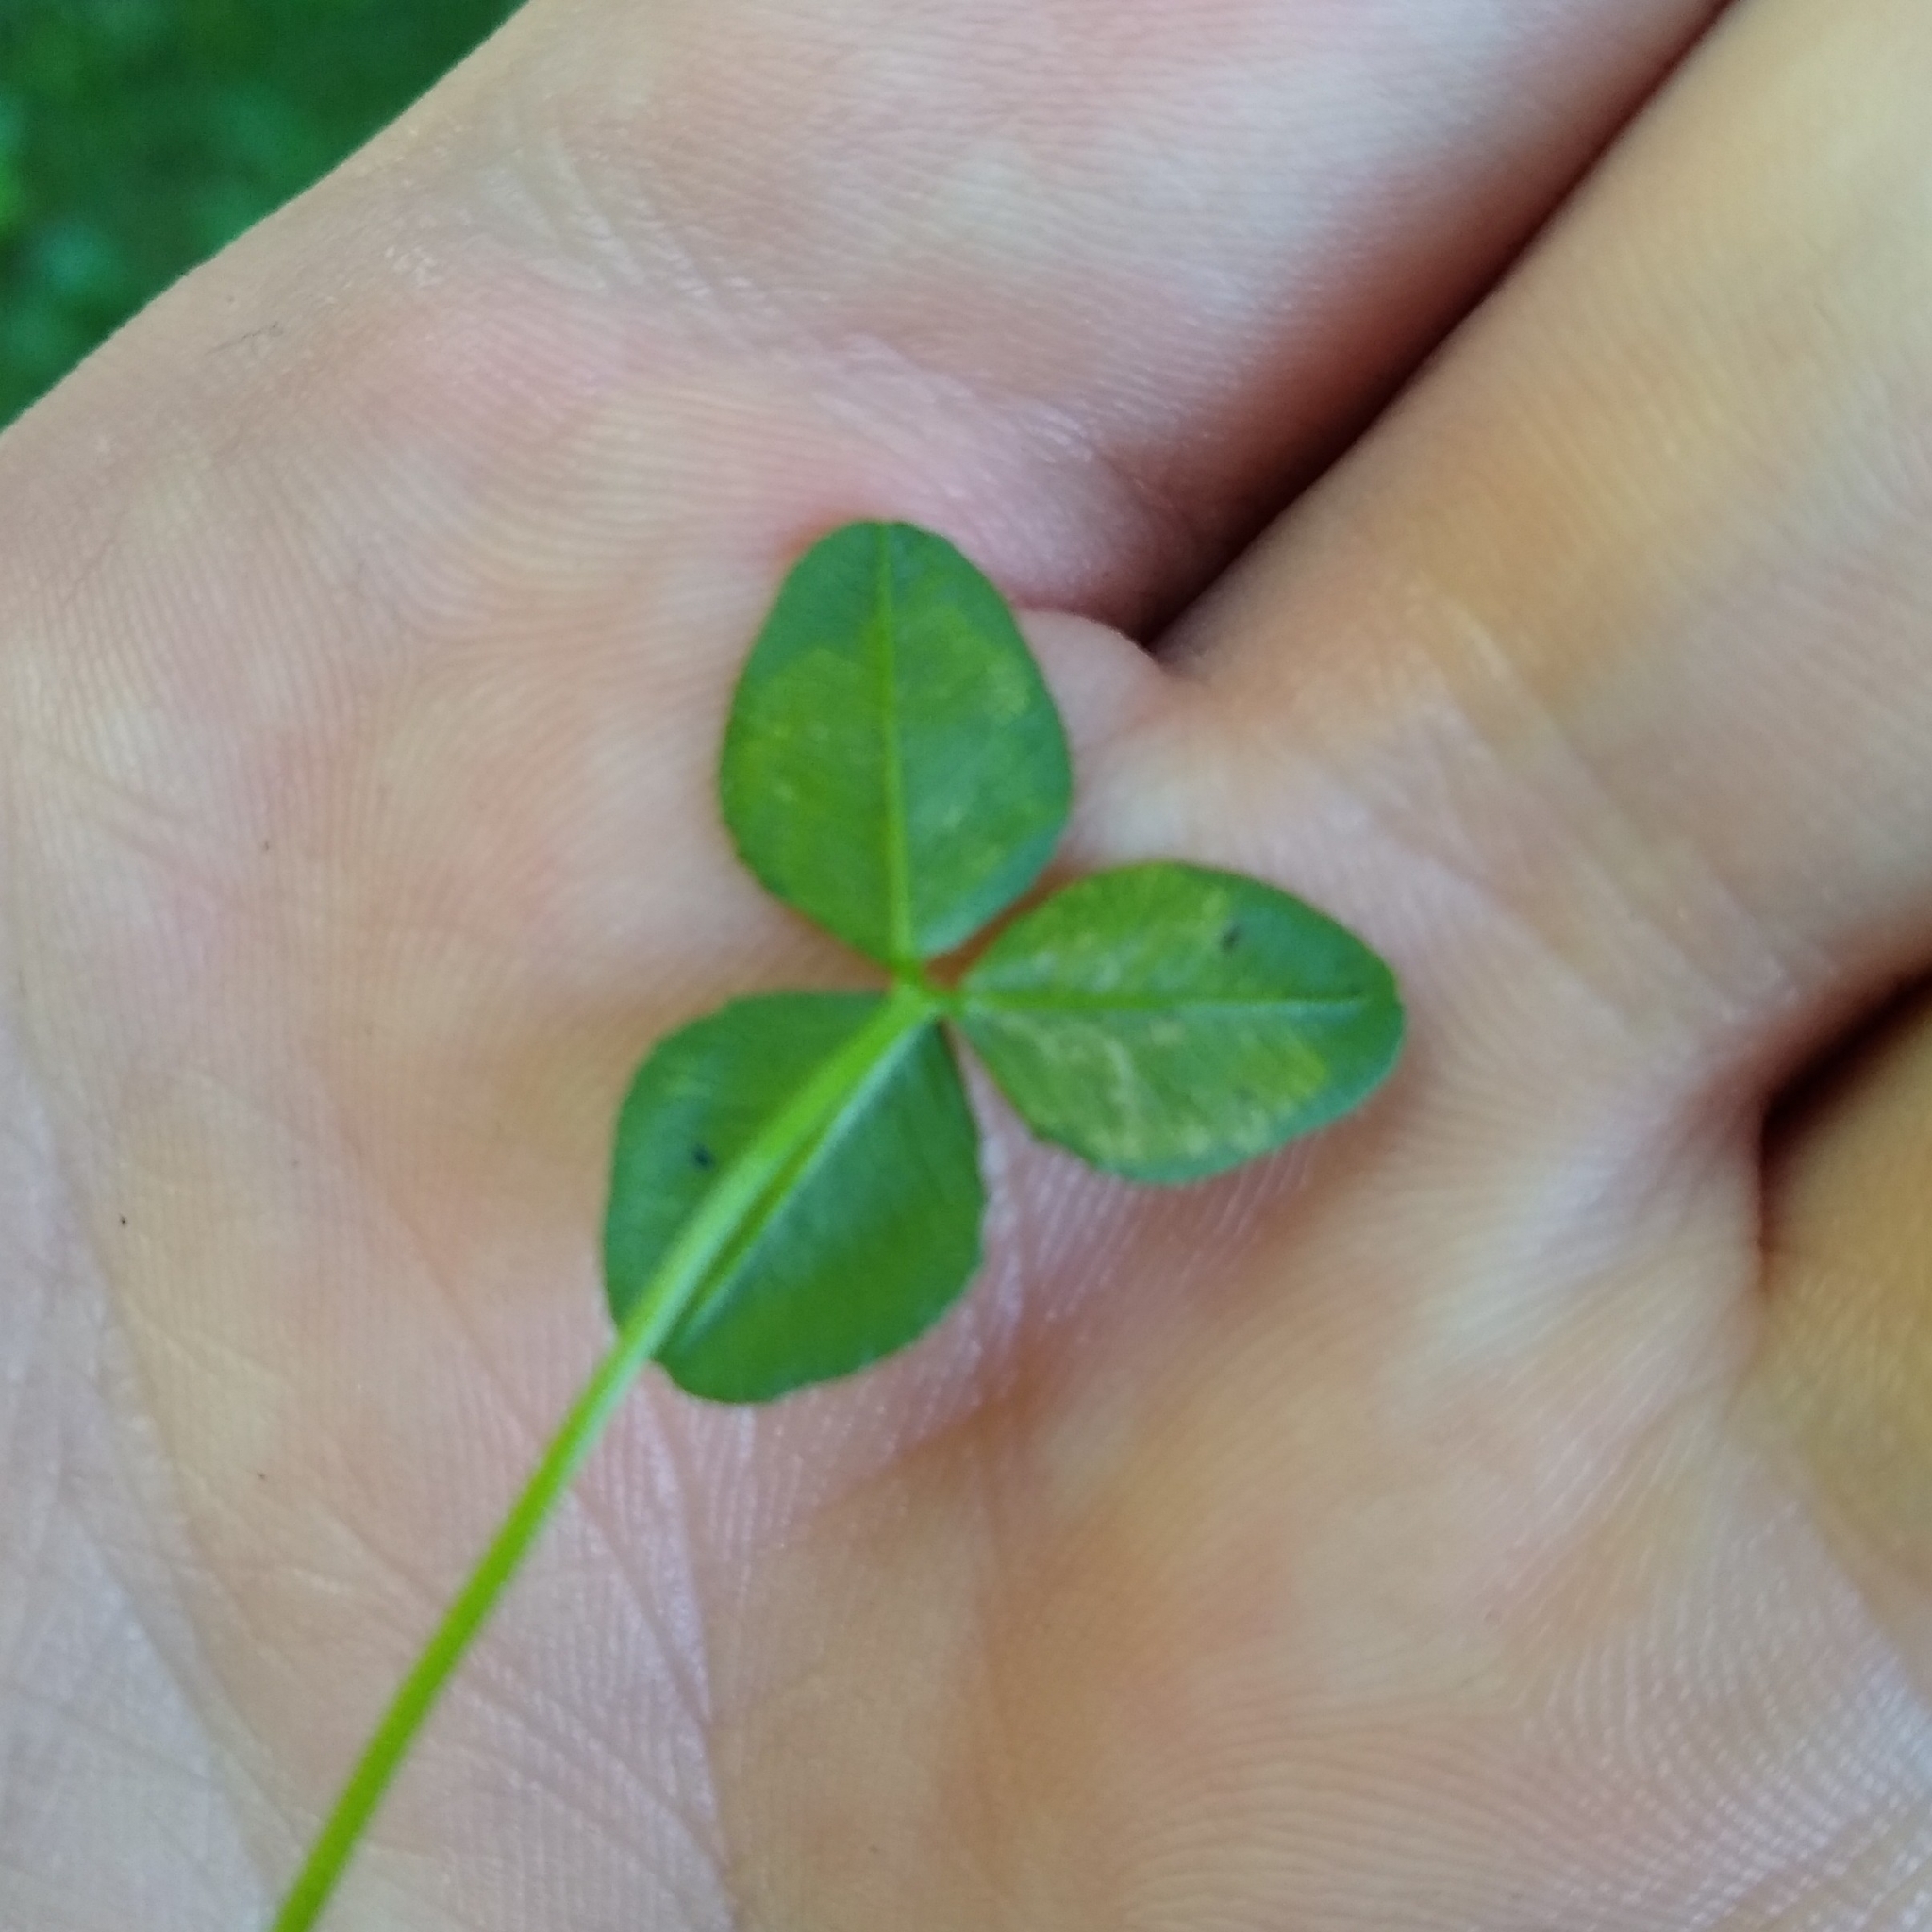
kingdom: Animalia
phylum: Arthropoda
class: Insecta
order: Diptera
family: Agromyzidae
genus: Liriomyza
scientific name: Liriomyza fricki
